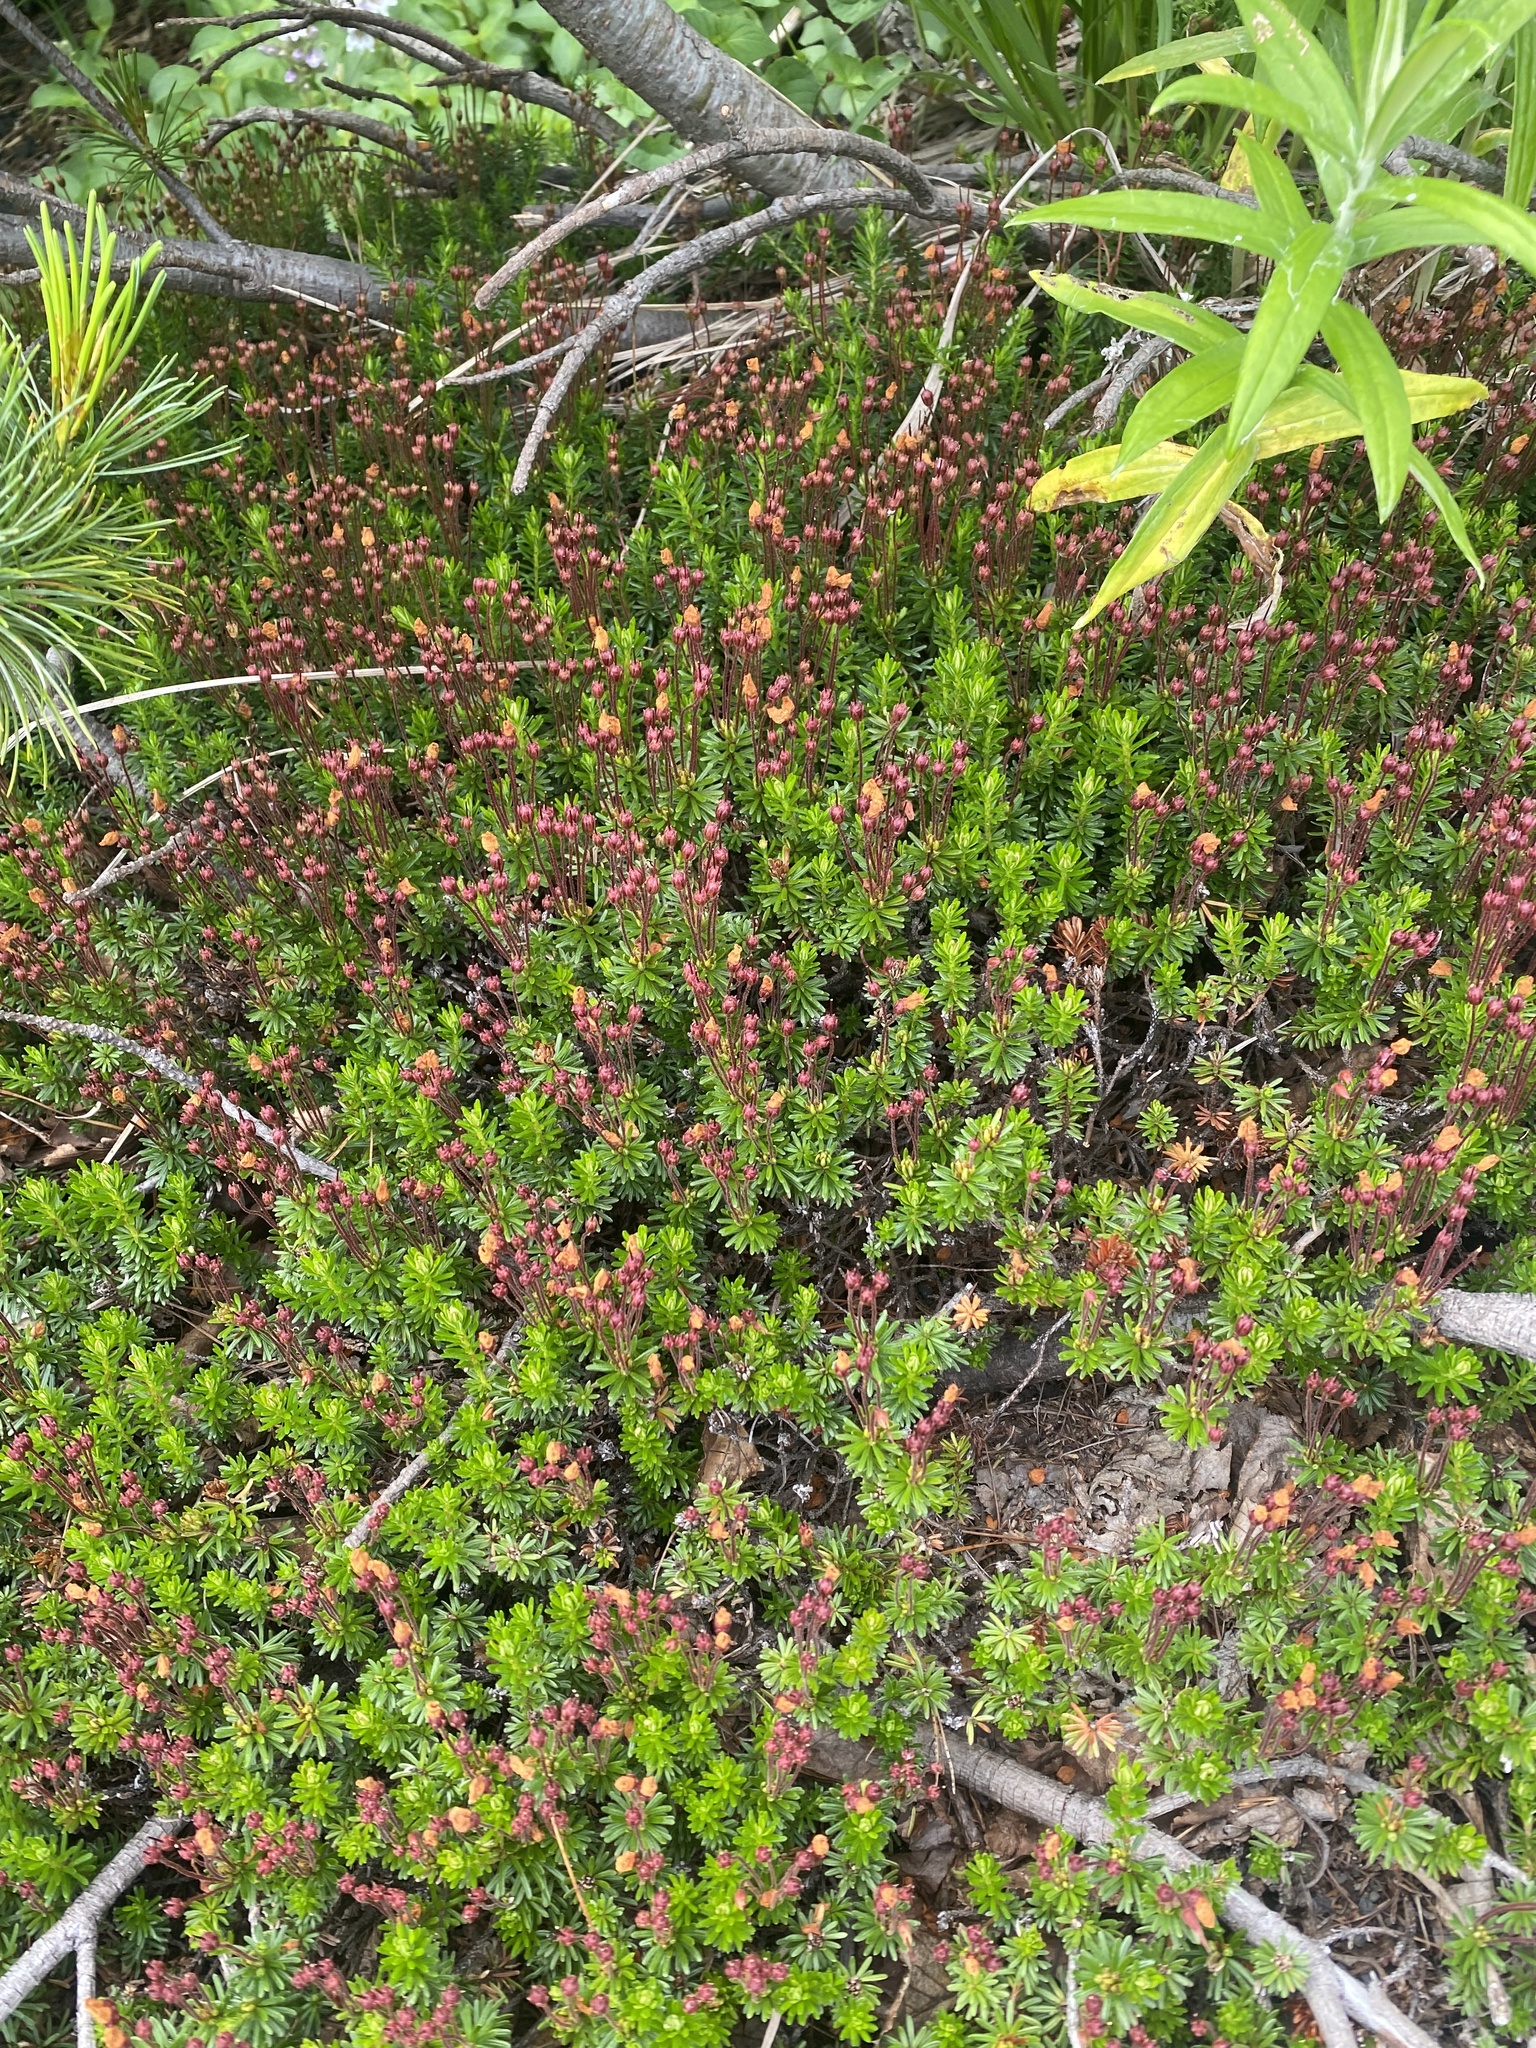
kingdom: Plantae
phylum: Tracheophyta
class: Magnoliopsida
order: Ericales
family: Ericaceae
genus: Phyllodoce
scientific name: Phyllodoce caerulea
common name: Blue heath
